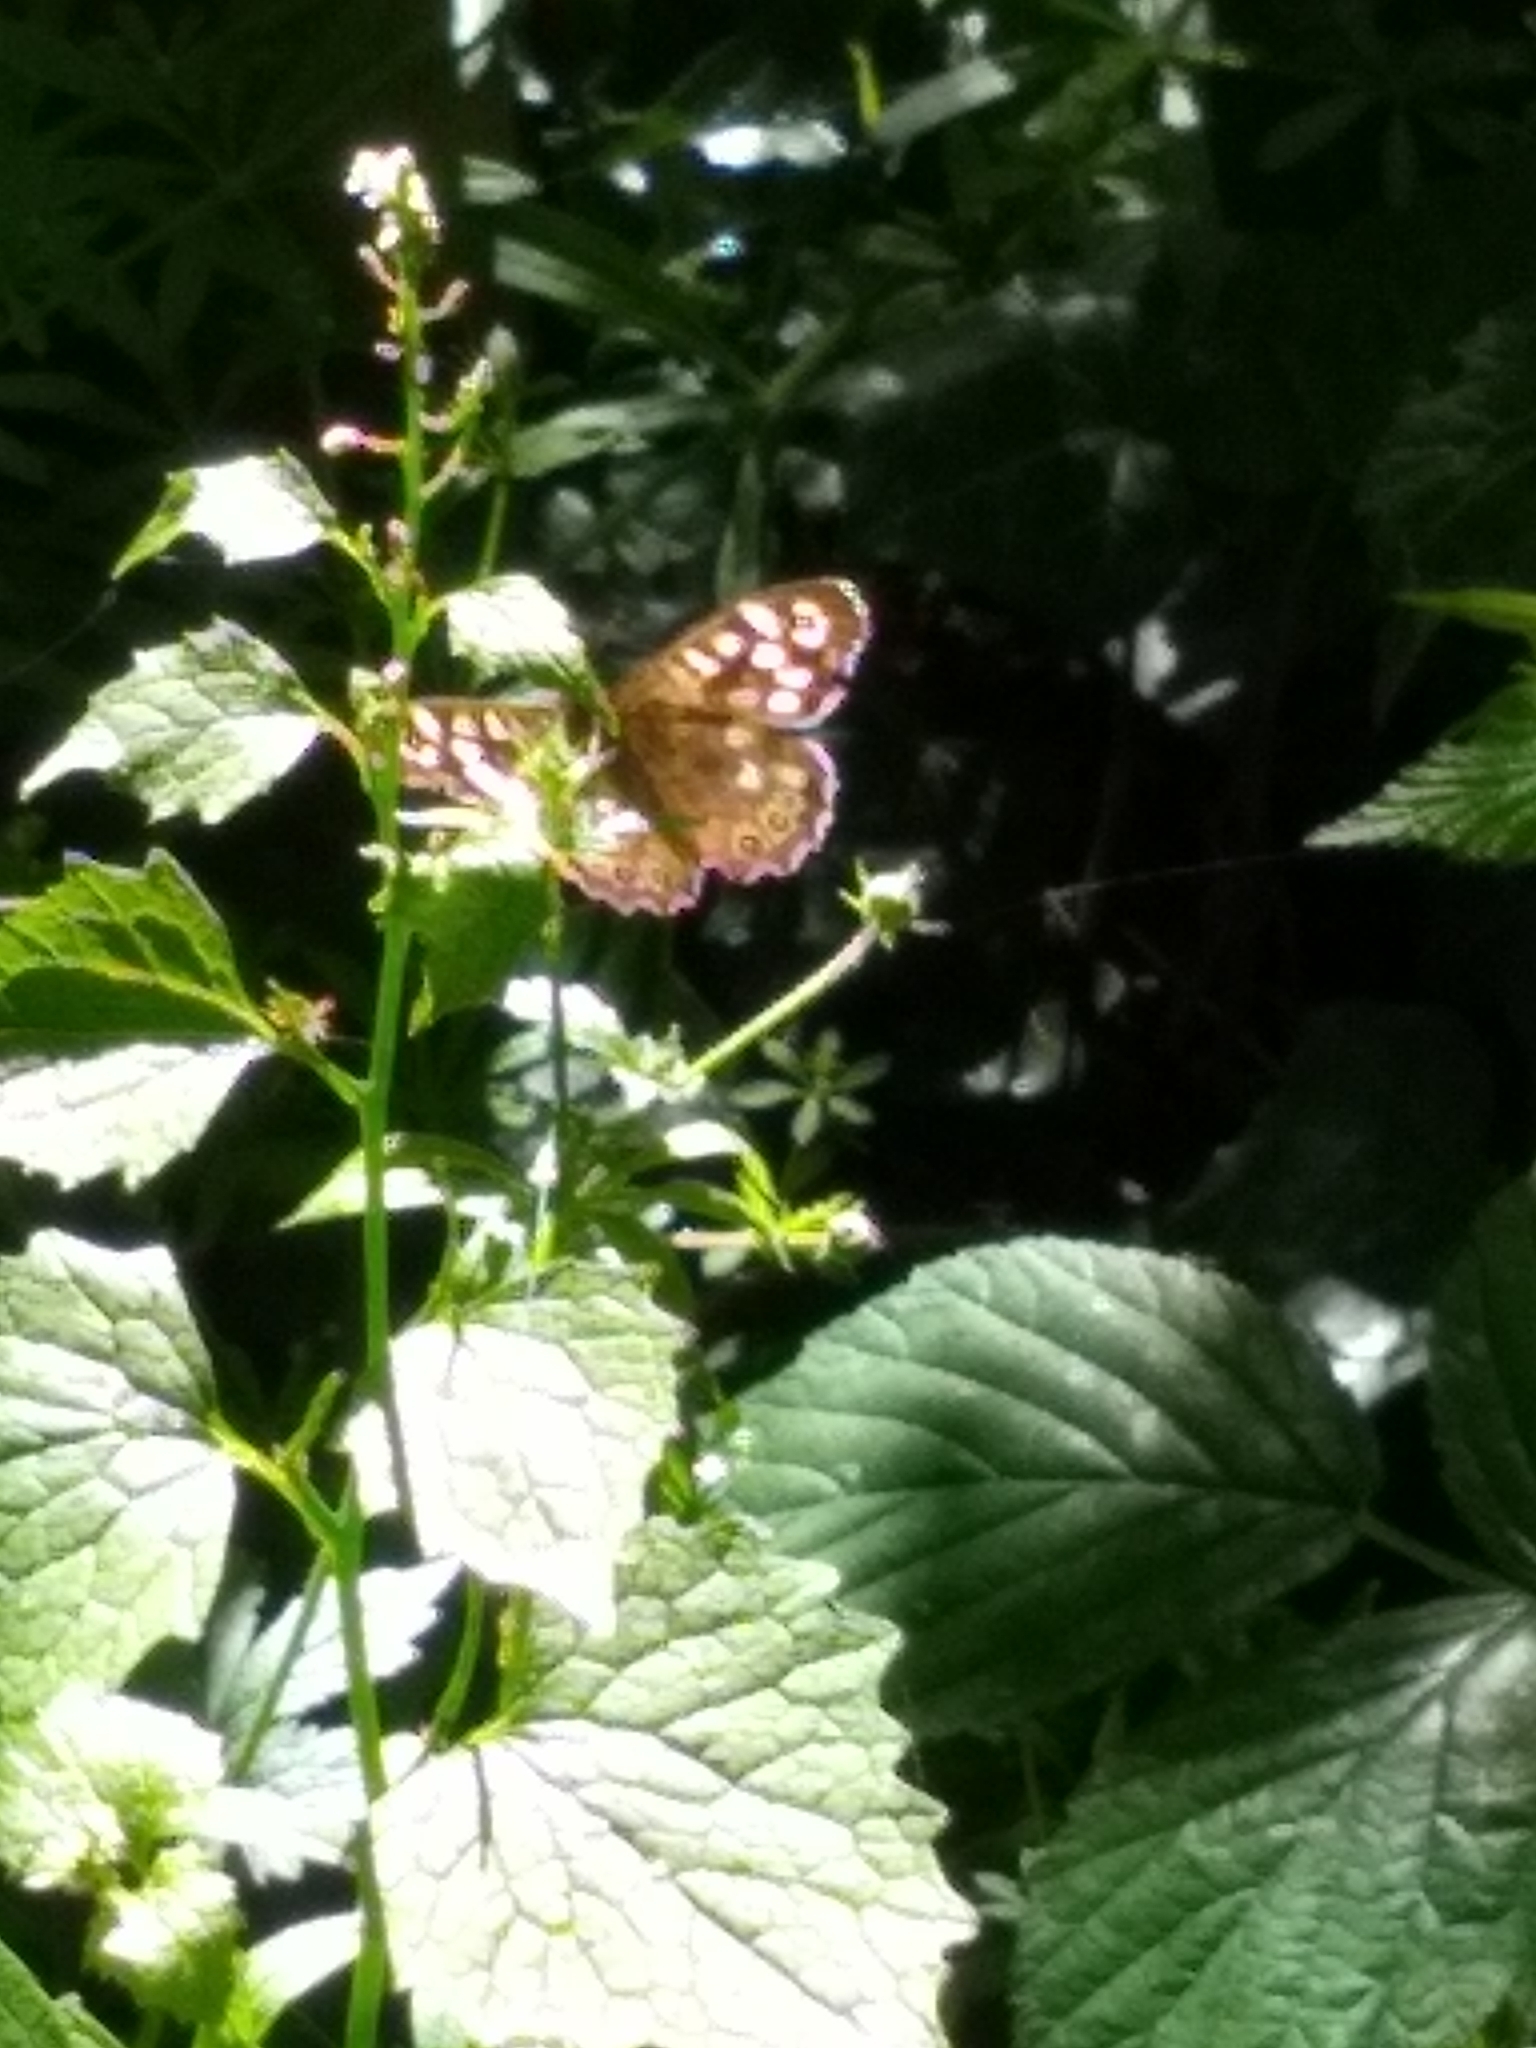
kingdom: Animalia
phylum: Arthropoda
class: Insecta
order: Lepidoptera
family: Nymphalidae
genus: Pararge
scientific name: Pararge aegeria
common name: Speckled wood
